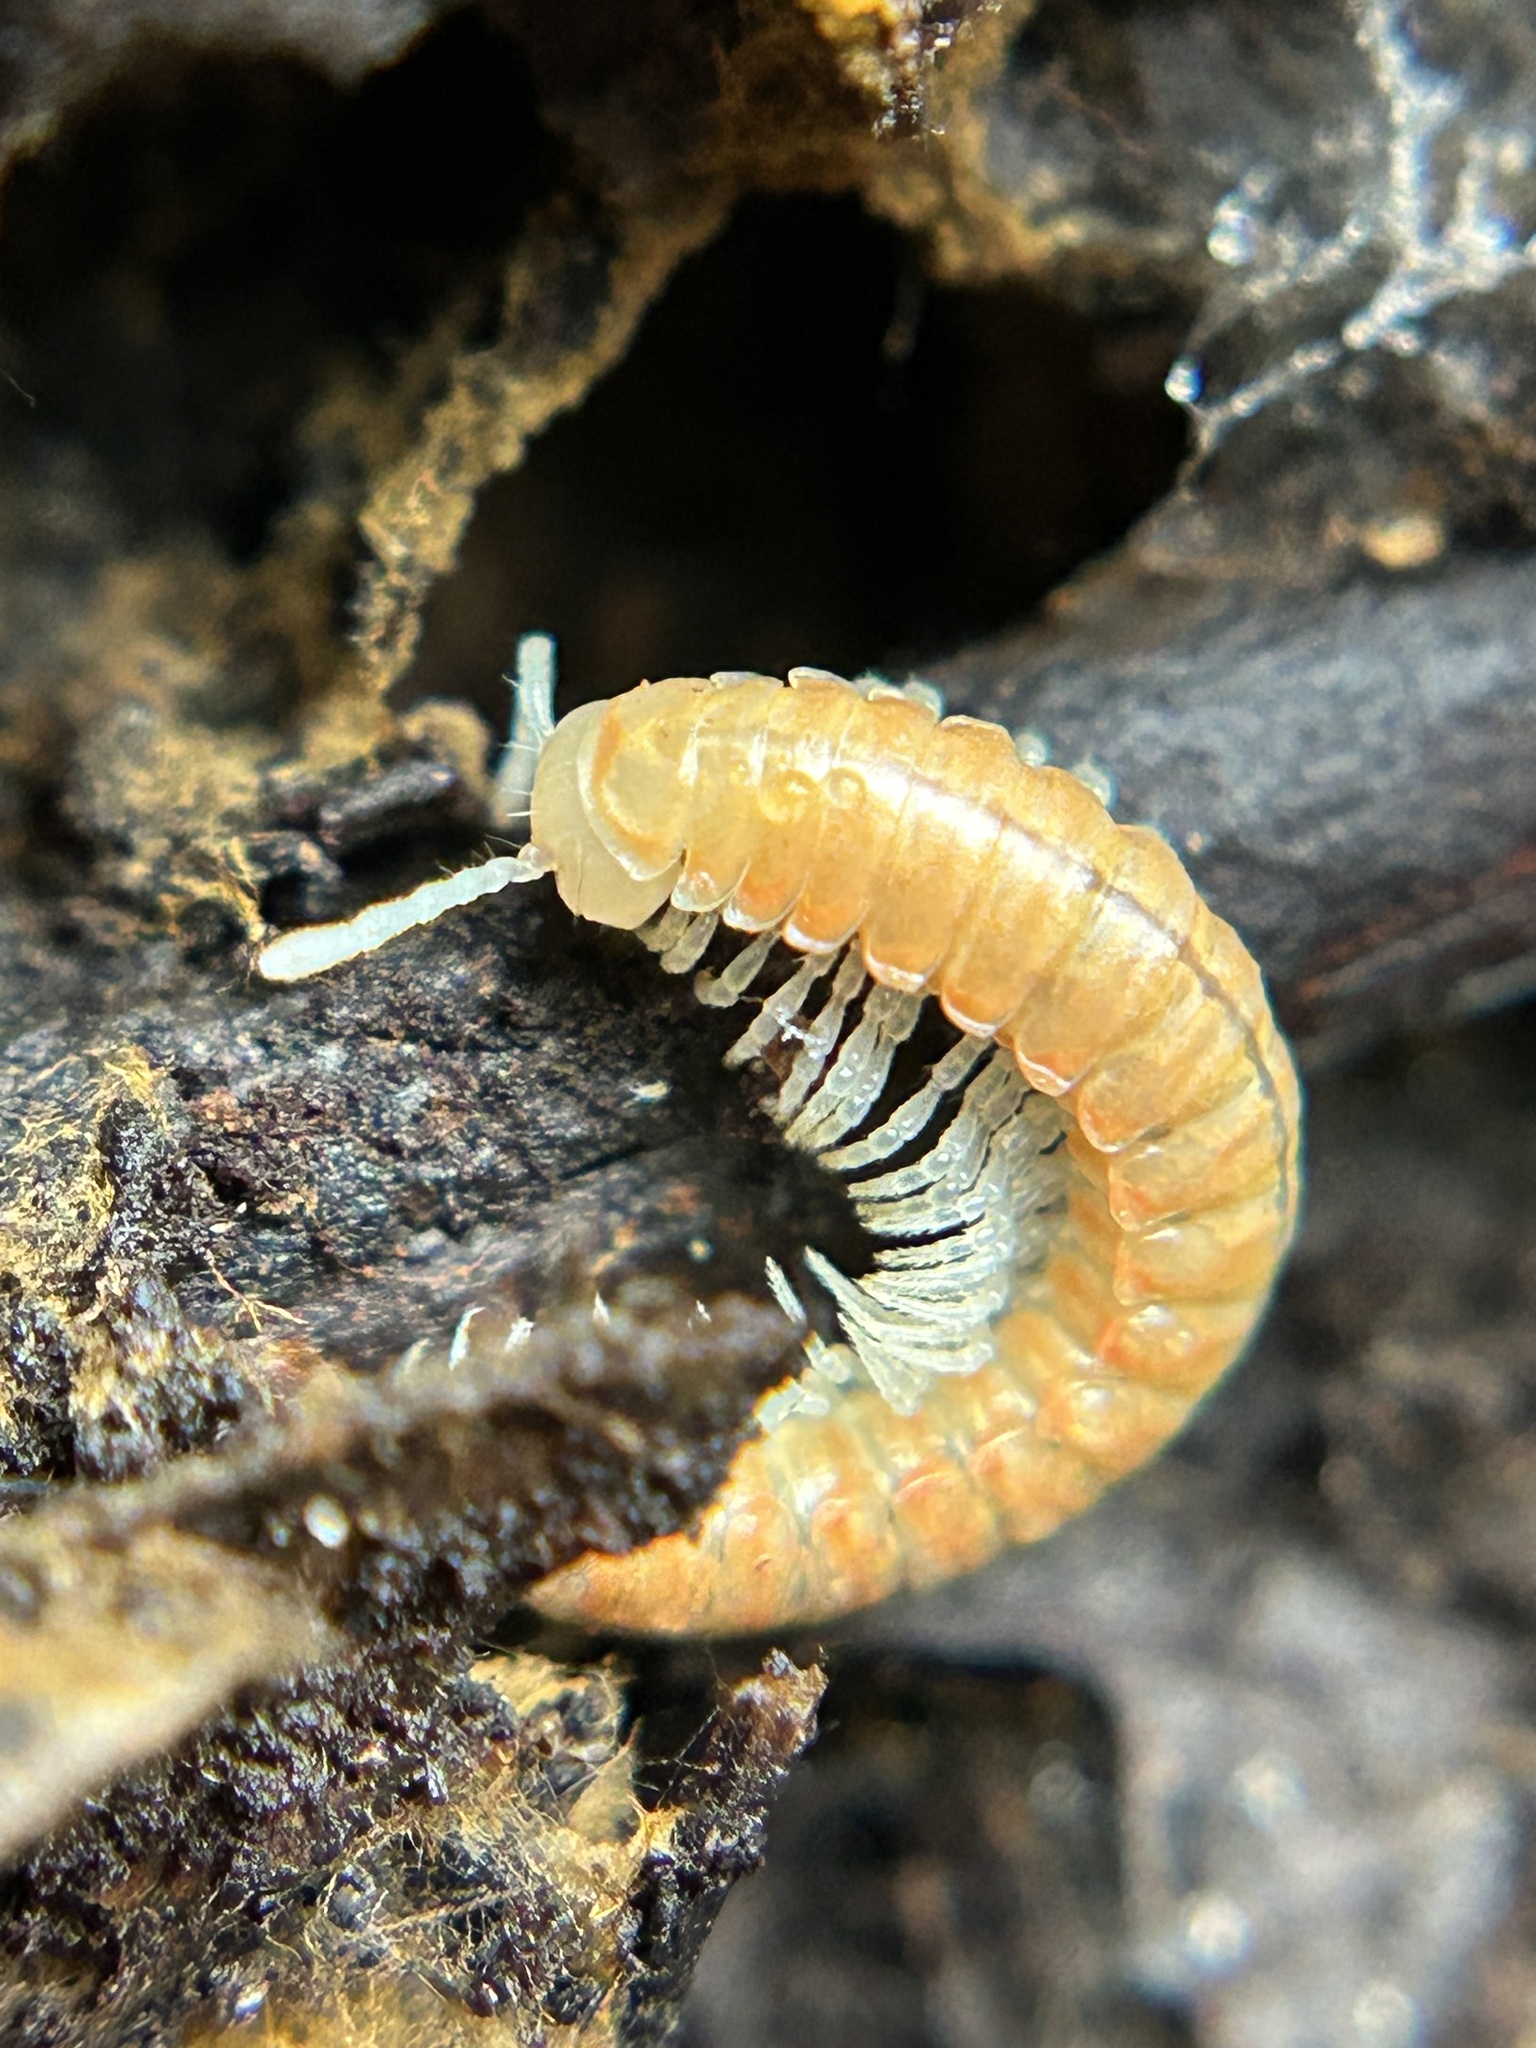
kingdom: Animalia
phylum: Arthropoda
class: Diplopoda
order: Polydesmida
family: Xystodesmidae
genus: Motyxia
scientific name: Motyxia bistipita
